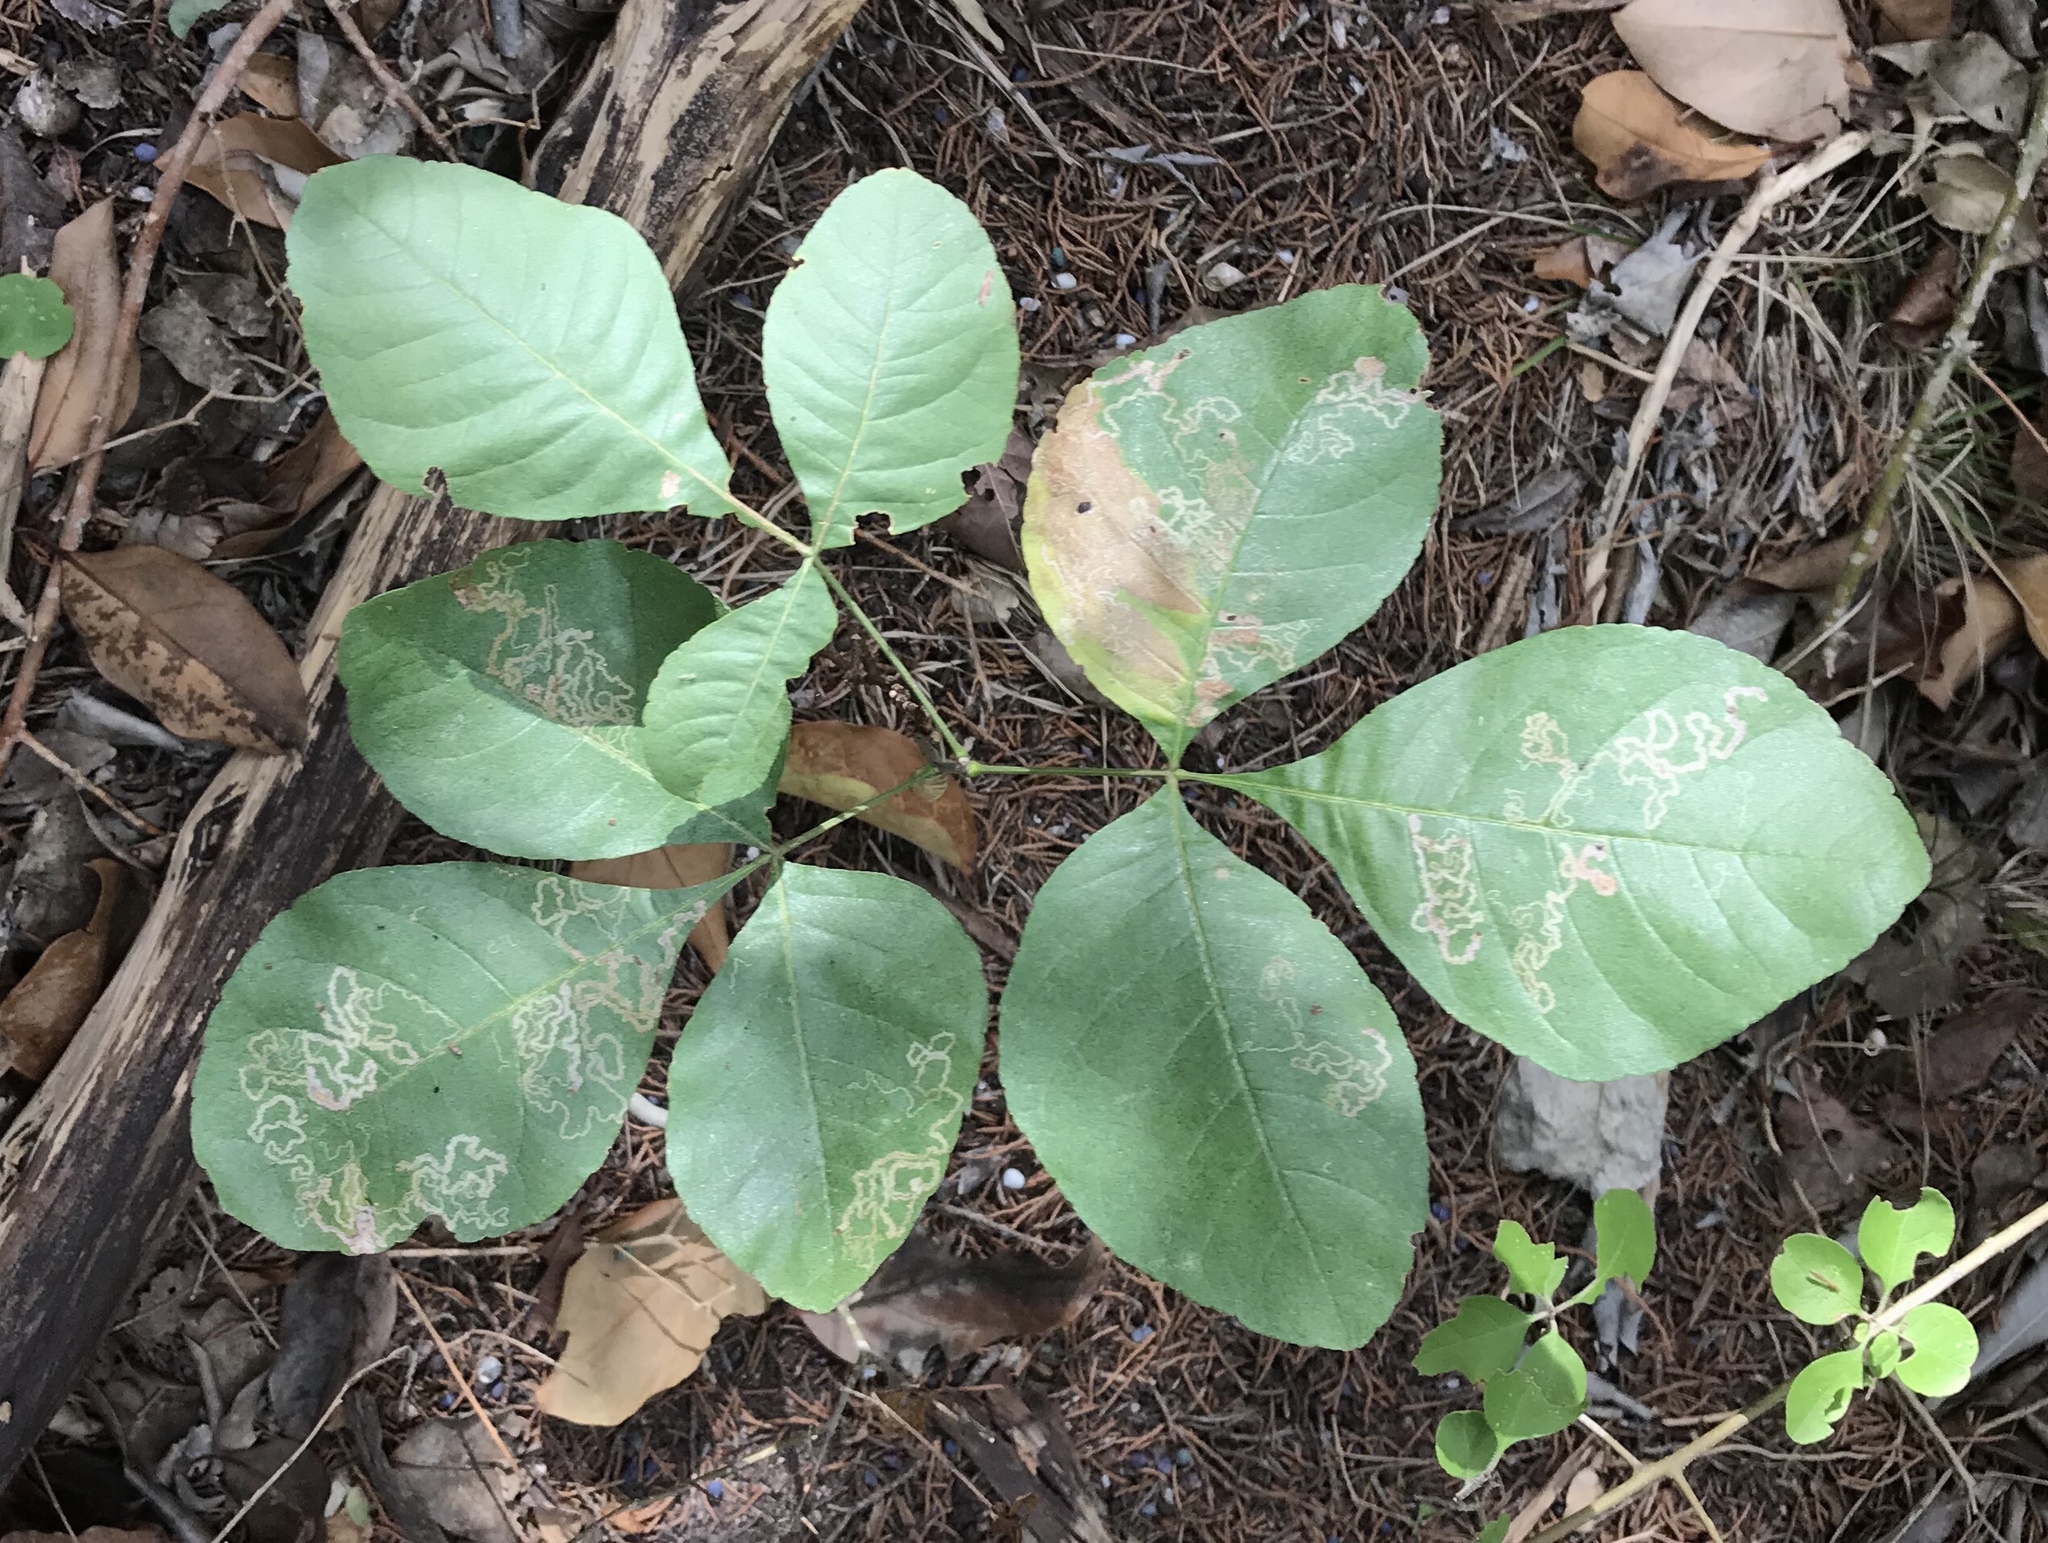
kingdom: Plantae
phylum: Tracheophyta
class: Magnoliopsida
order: Sapindales
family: Rutaceae
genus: Ptelea
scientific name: Ptelea trifoliata
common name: Common hop-tree
